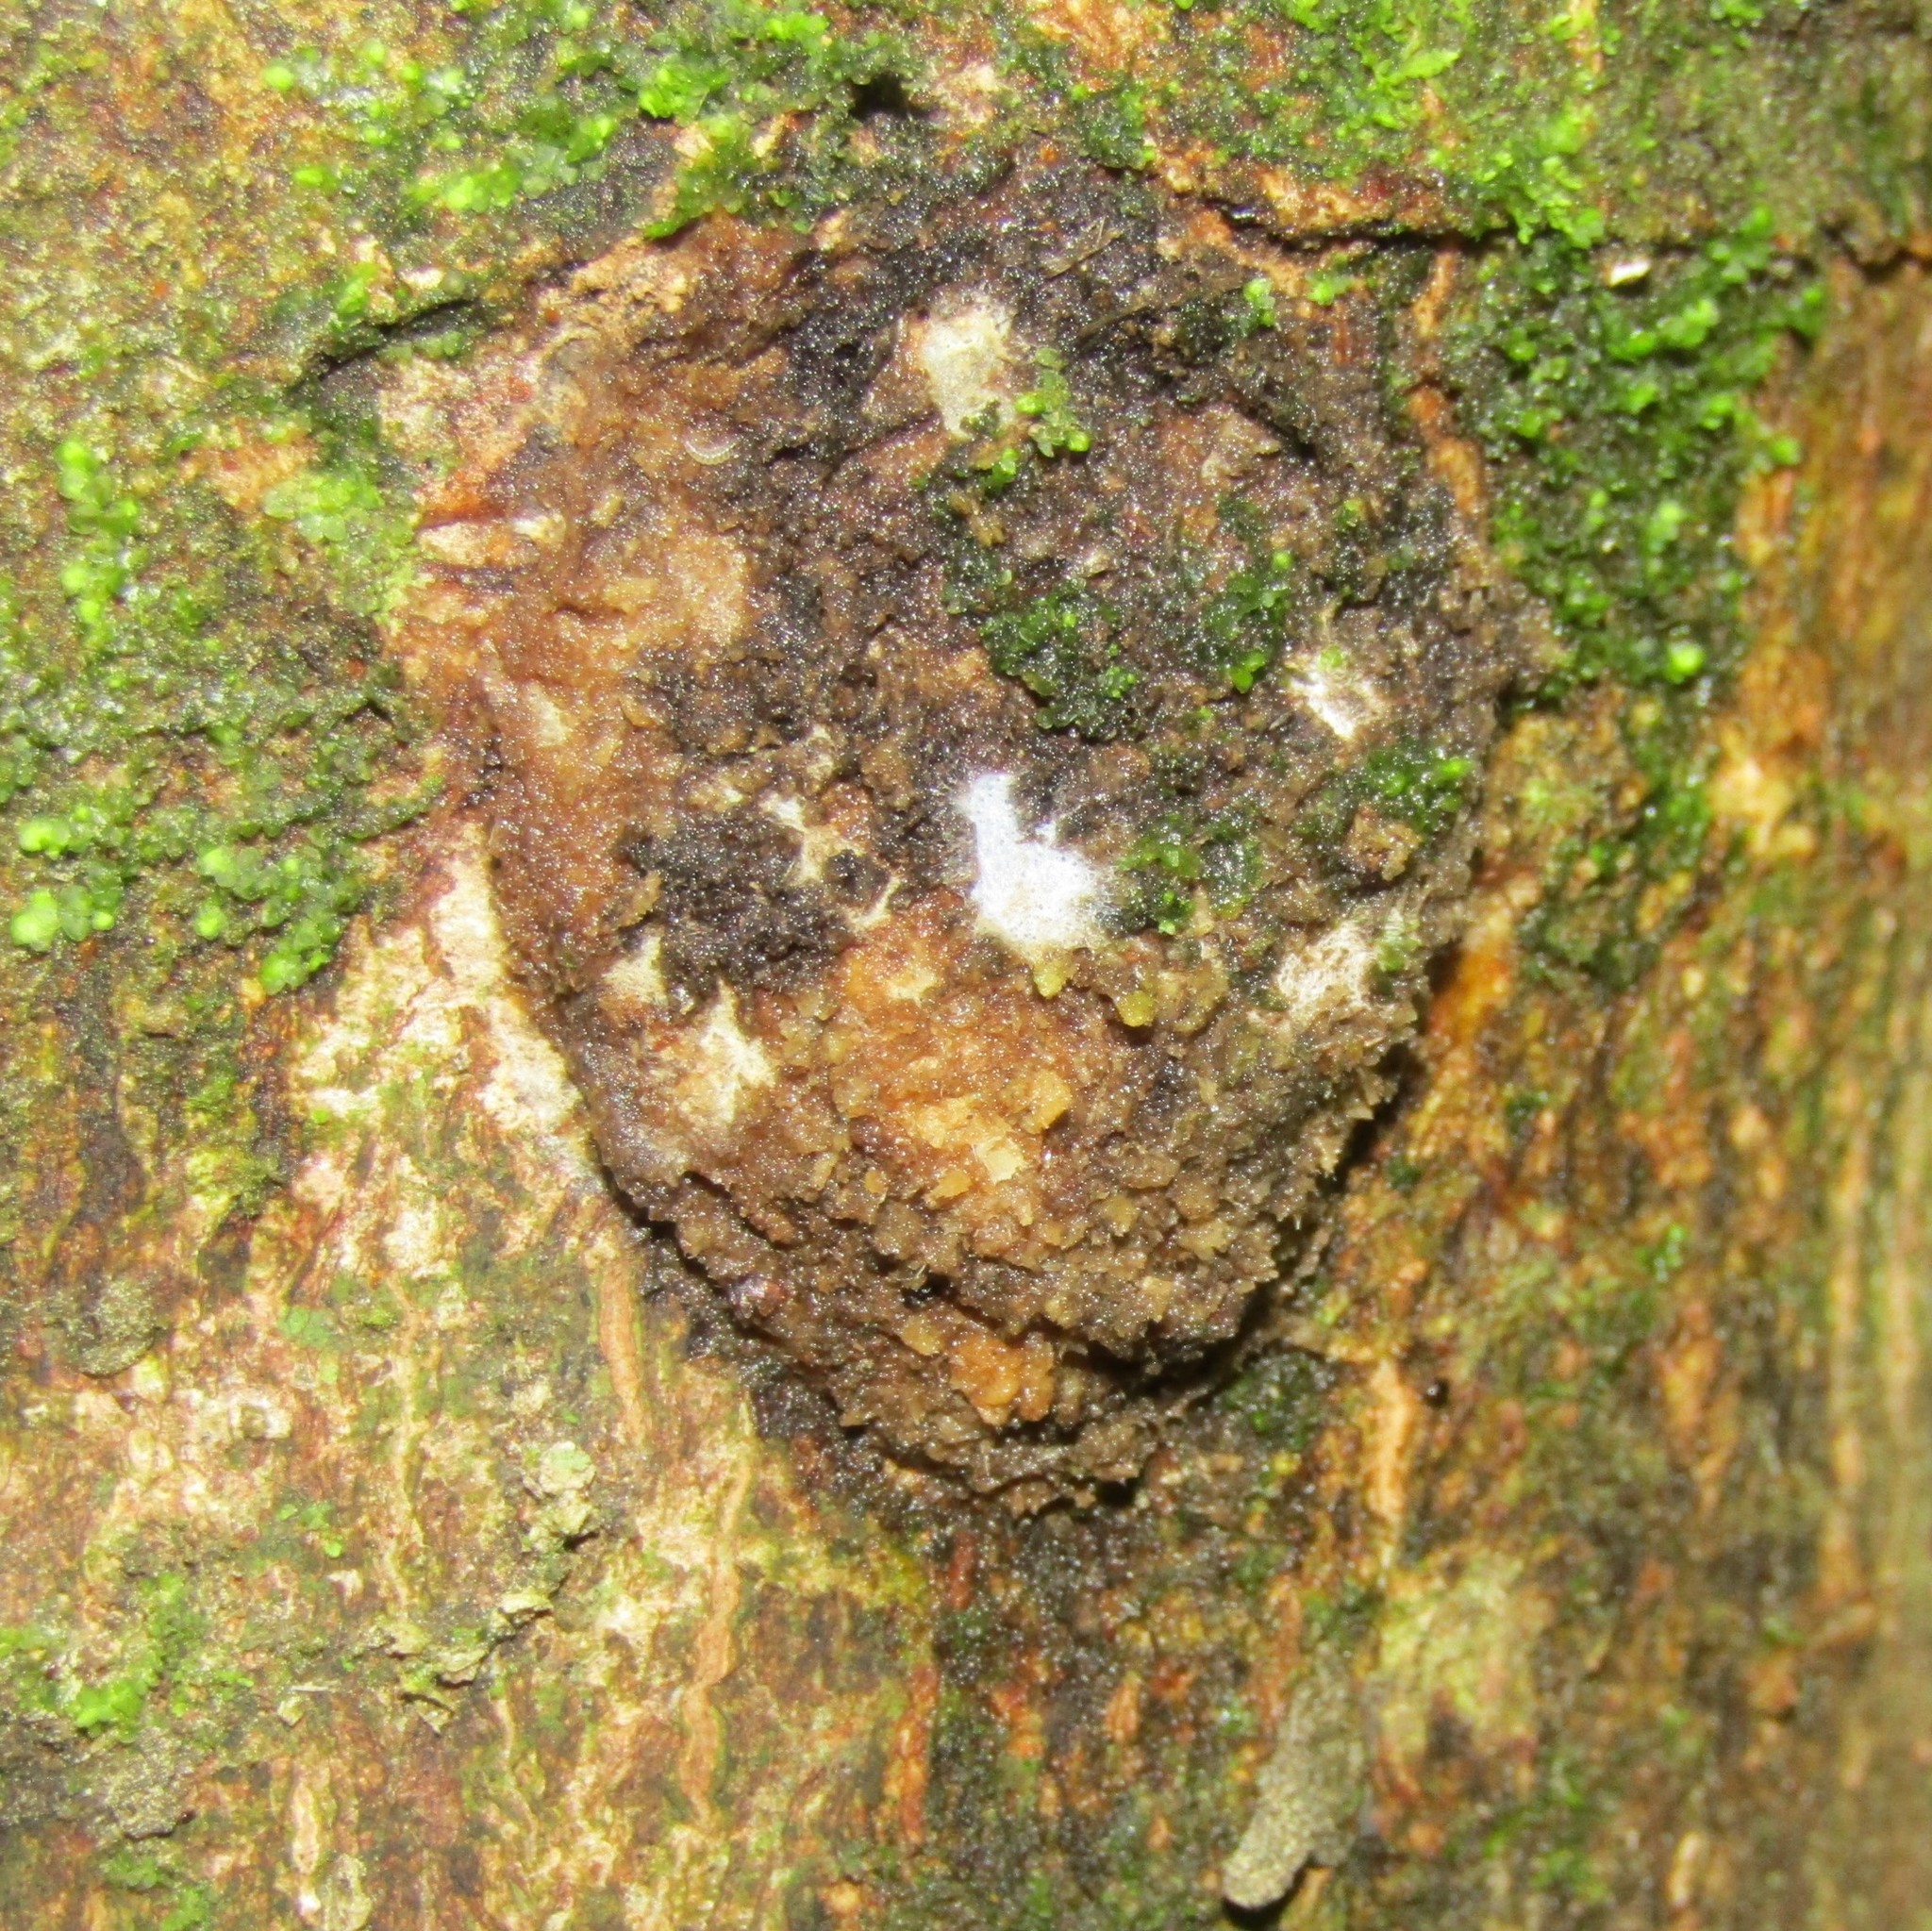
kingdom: Animalia
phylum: Arthropoda
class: Insecta
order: Lepidoptera
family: Hepialidae
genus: Aenetus
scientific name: Aenetus virescens
